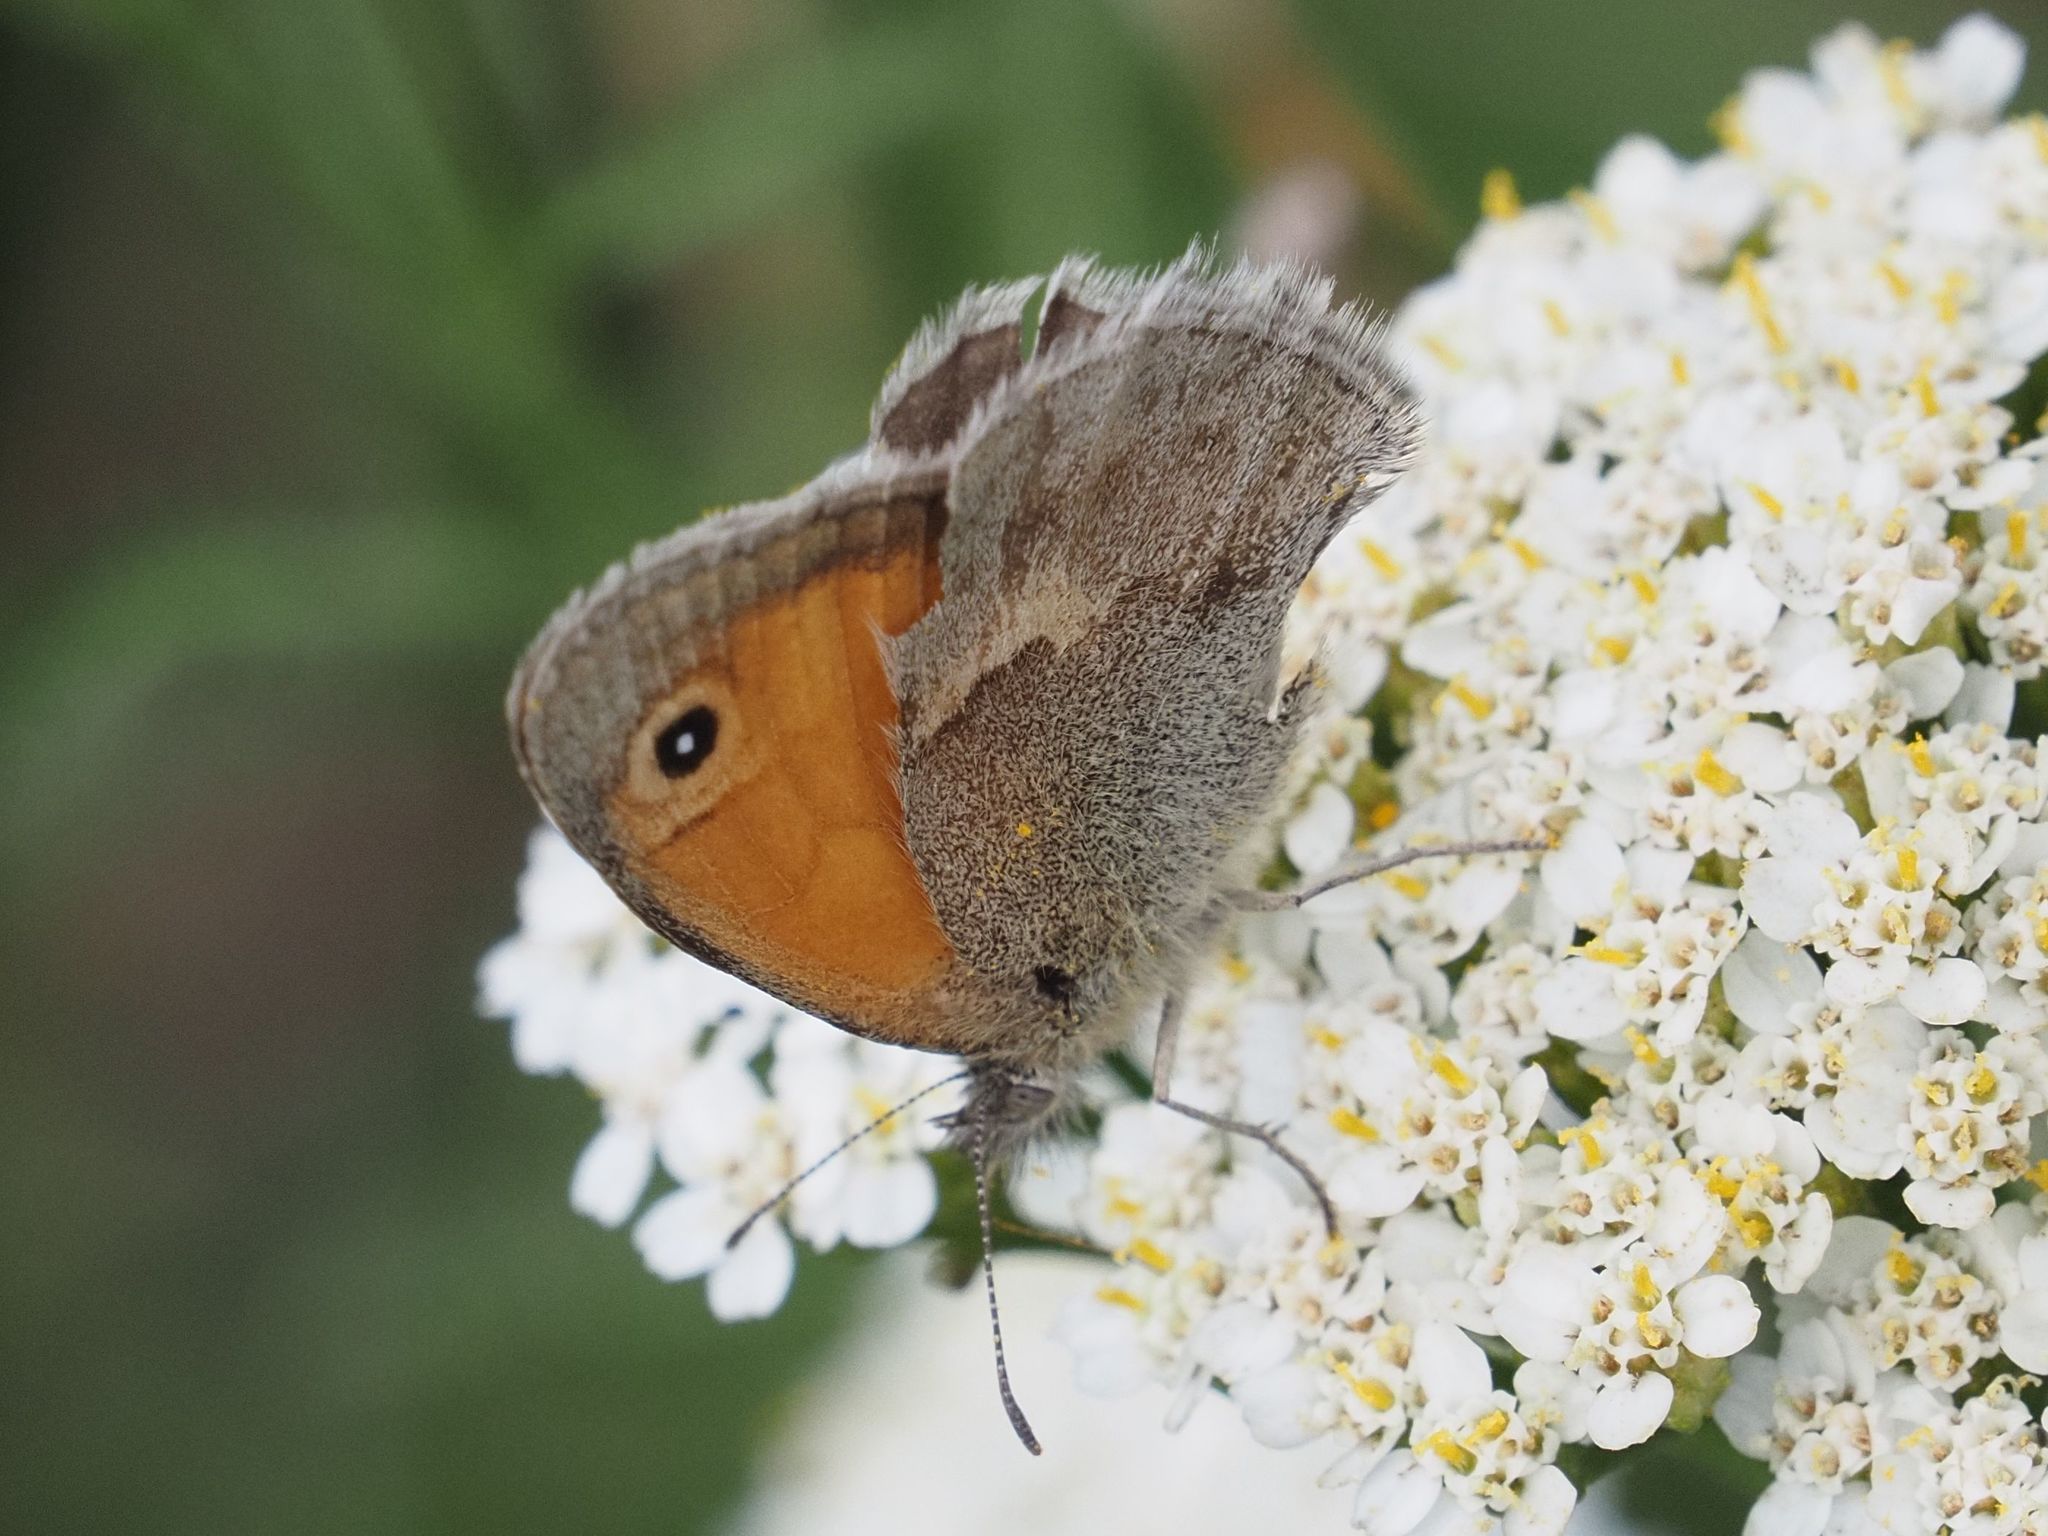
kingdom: Animalia
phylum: Arthropoda
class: Insecta
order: Lepidoptera
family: Nymphalidae
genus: Coenonympha
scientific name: Coenonympha pamphilus
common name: Small heath
